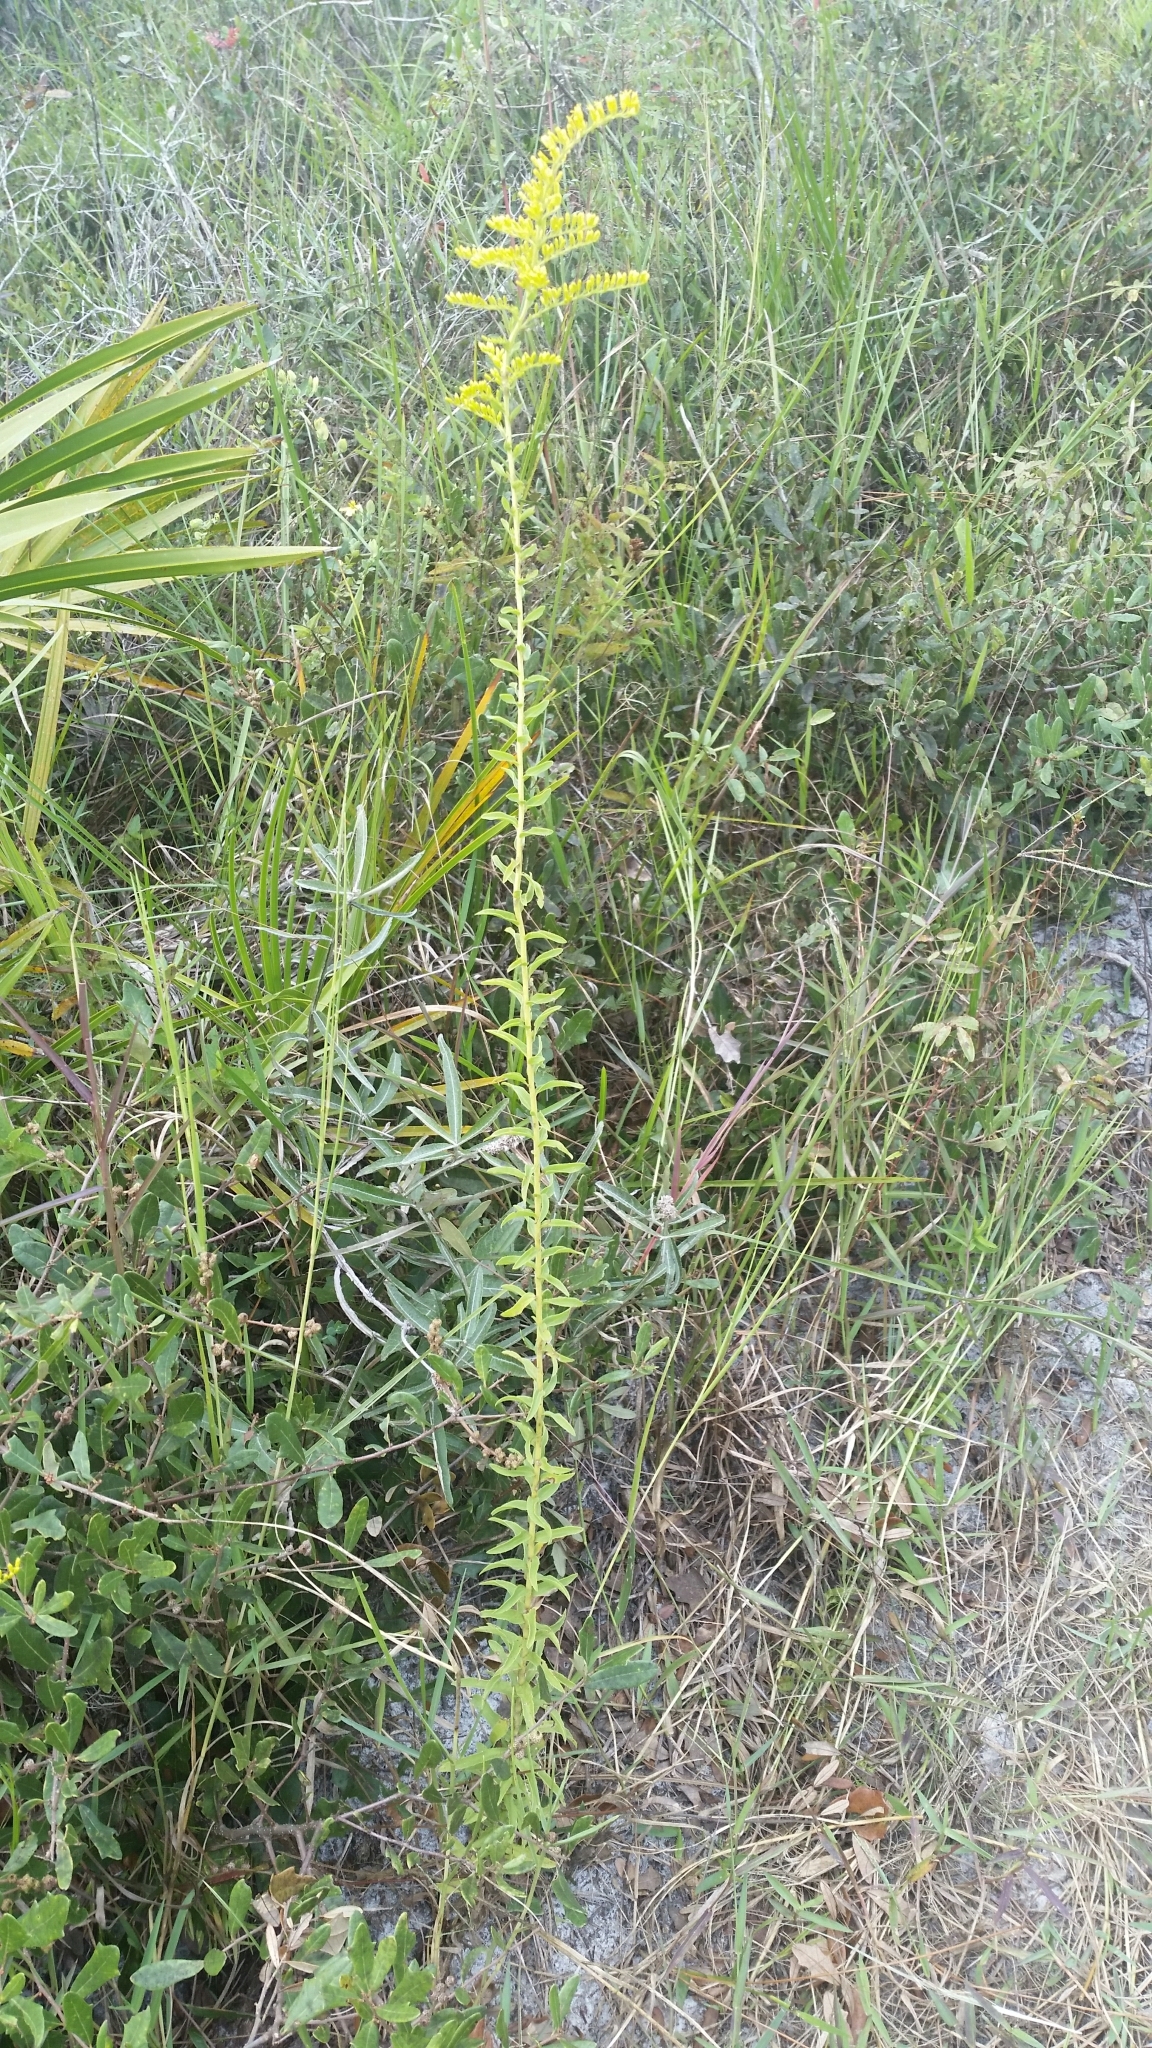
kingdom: Plantae
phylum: Tracheophyta
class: Magnoliopsida
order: Asterales
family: Asteraceae
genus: Solidago
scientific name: Solidago tortifolia
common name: Twisted-leaf goldenrod
